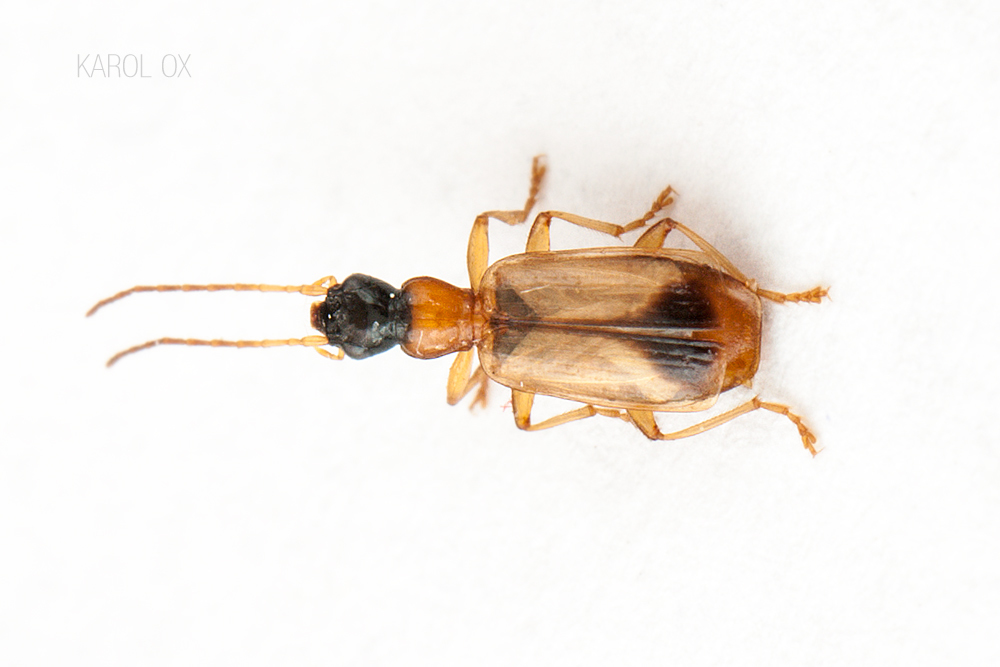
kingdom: Animalia
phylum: Arthropoda
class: Insecta
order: Coleoptera
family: Carabidae
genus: Demetrias
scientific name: Demetrias monostigma
